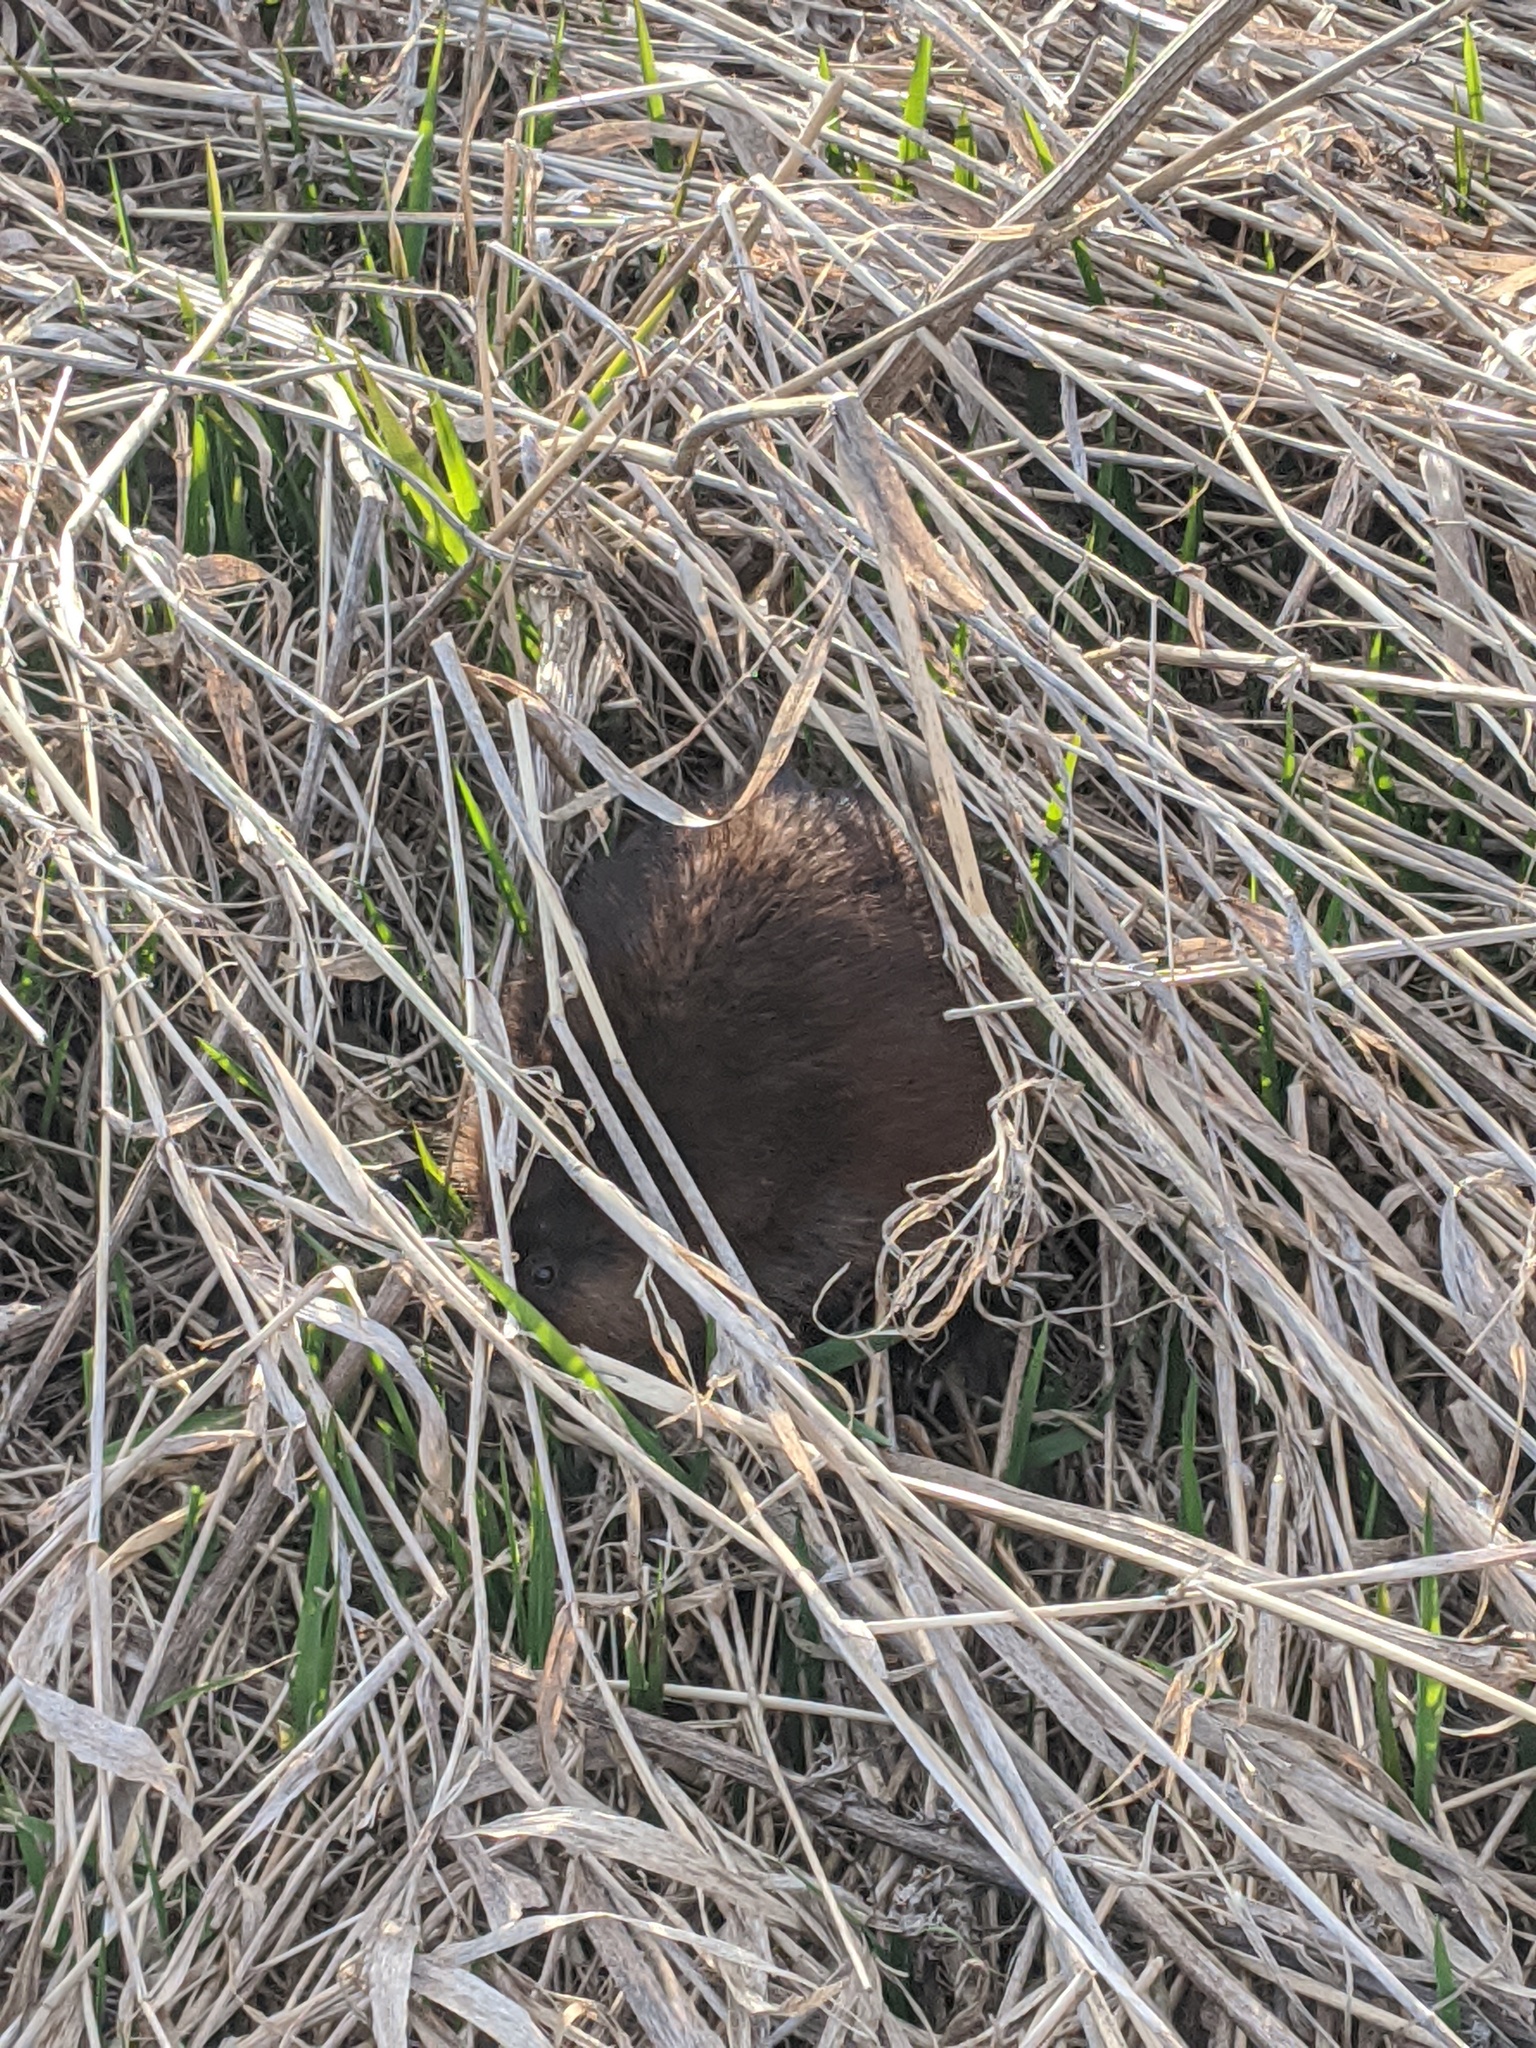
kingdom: Animalia
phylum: Chordata
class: Mammalia
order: Rodentia
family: Cricetidae
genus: Ondatra
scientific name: Ondatra zibethicus
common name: Muskrat
